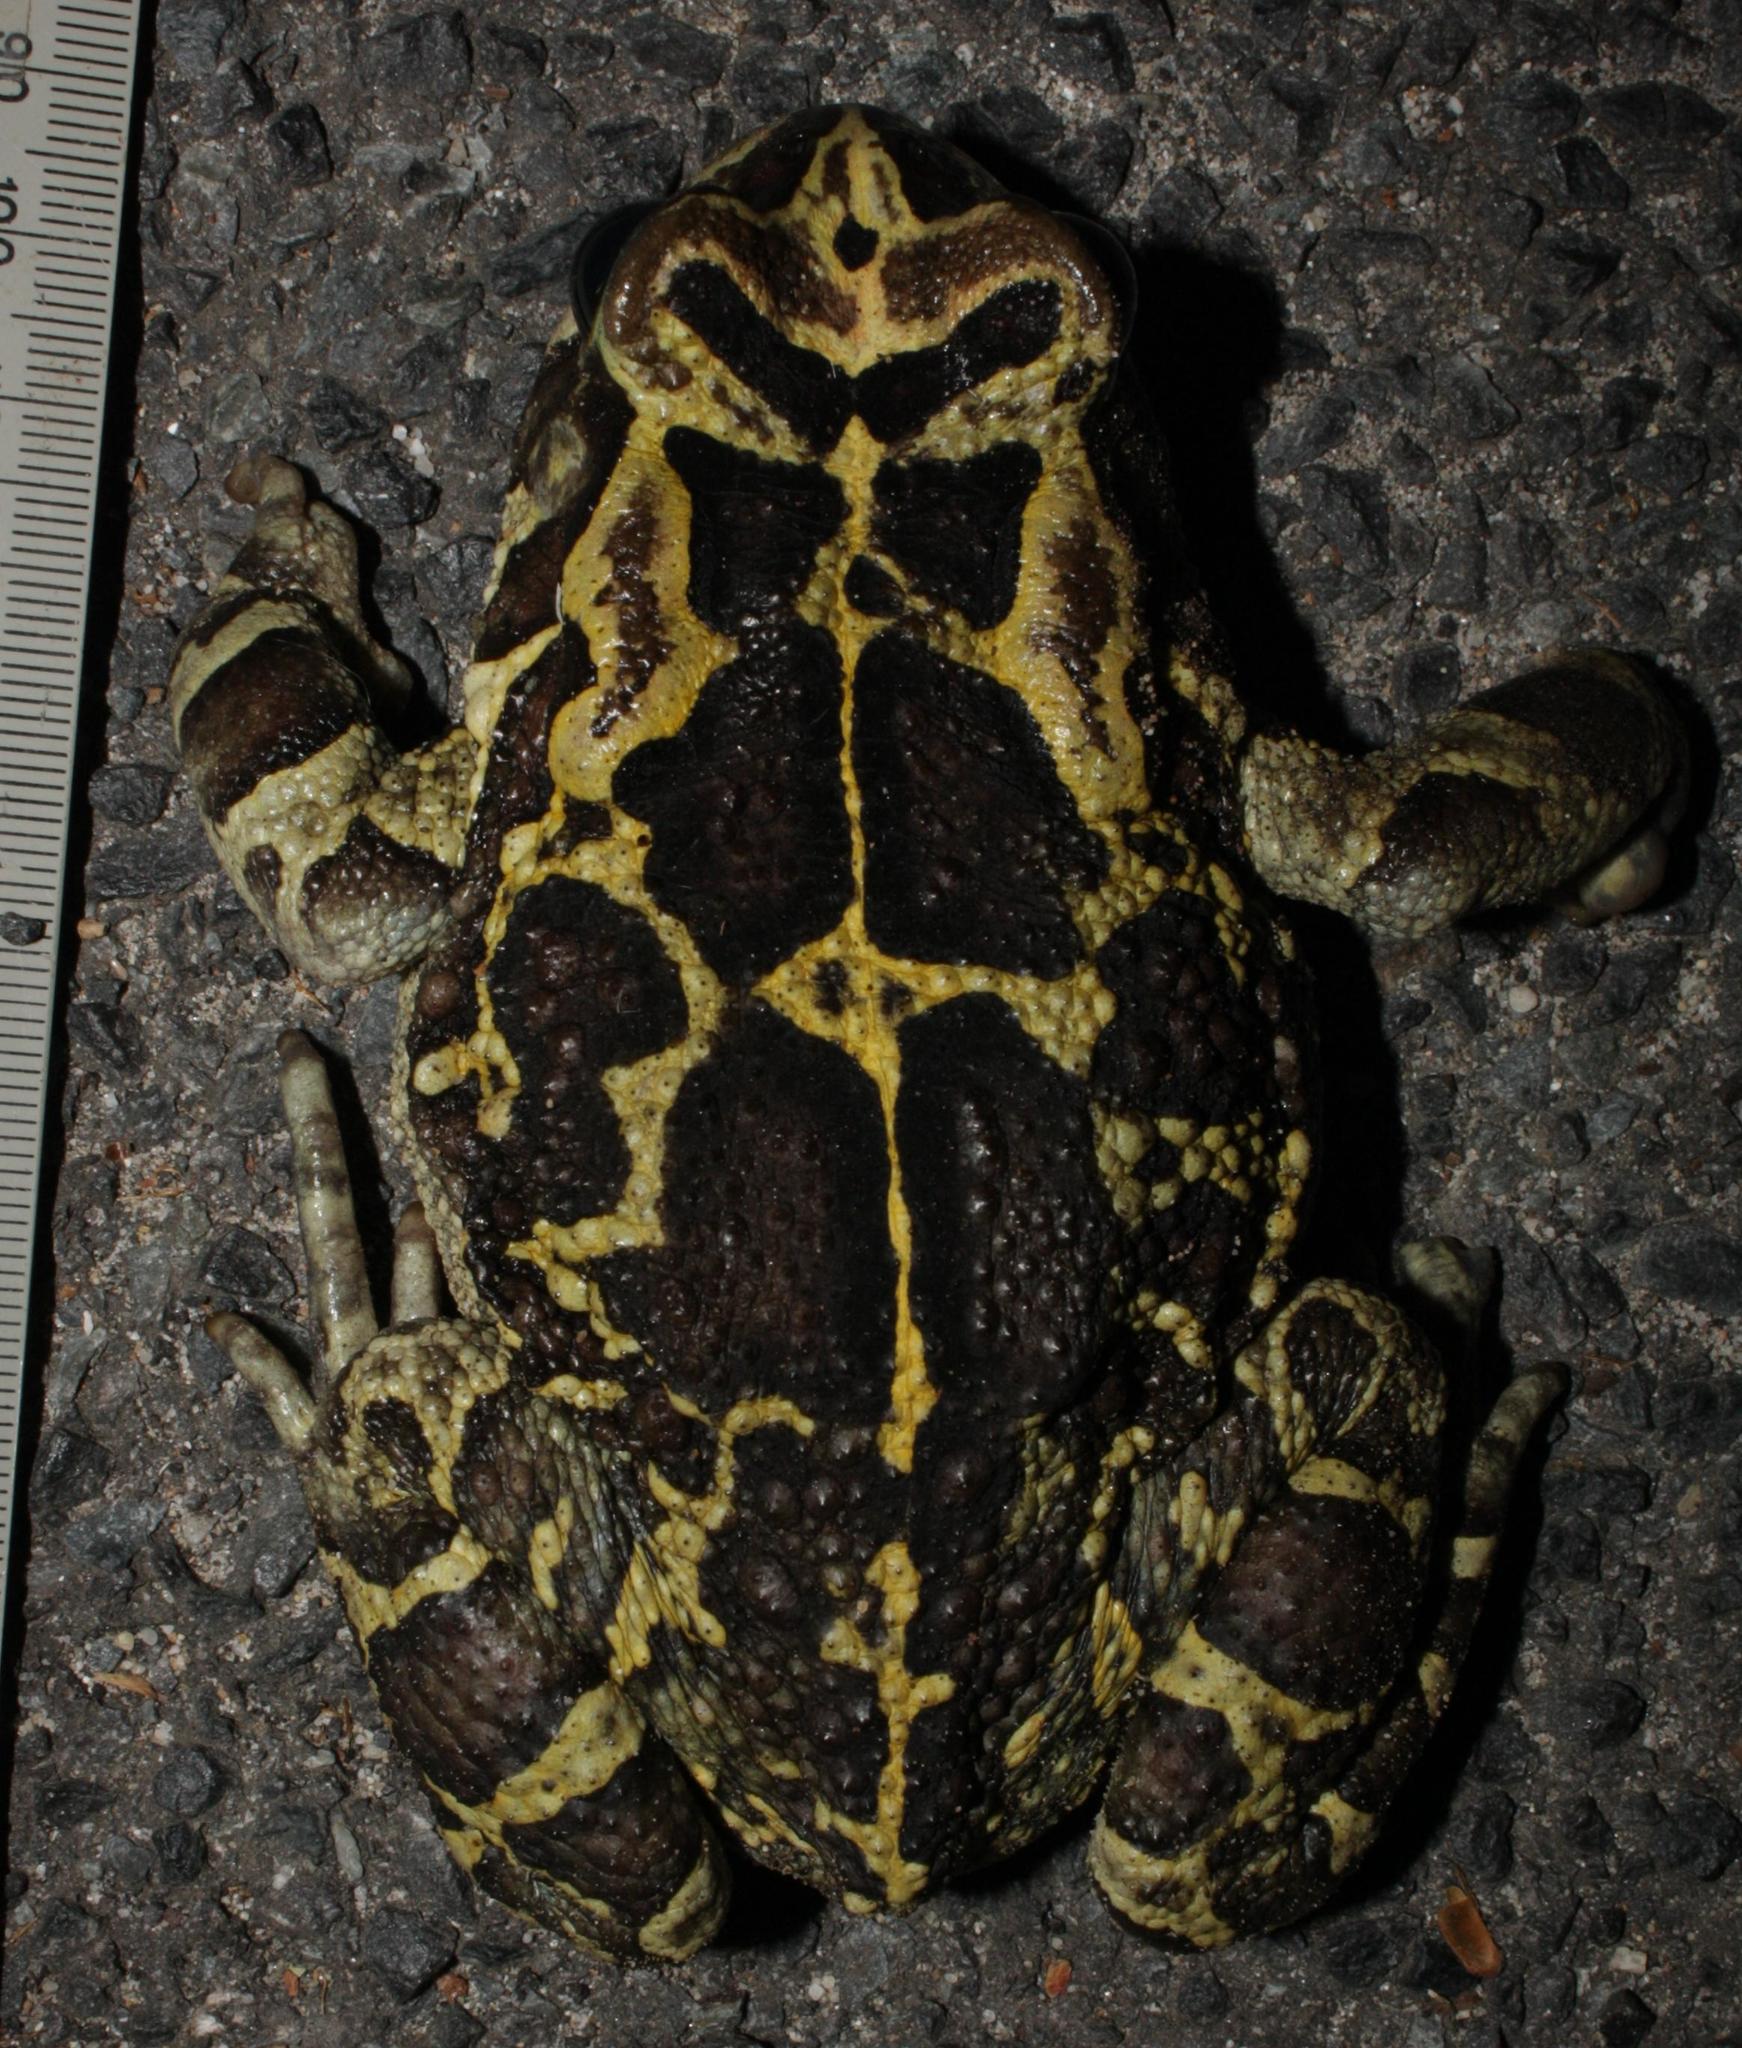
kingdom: Animalia
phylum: Chordata
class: Amphibia
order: Anura
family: Bufonidae
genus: Sclerophrys
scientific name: Sclerophrys pantherina
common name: Panther toad
